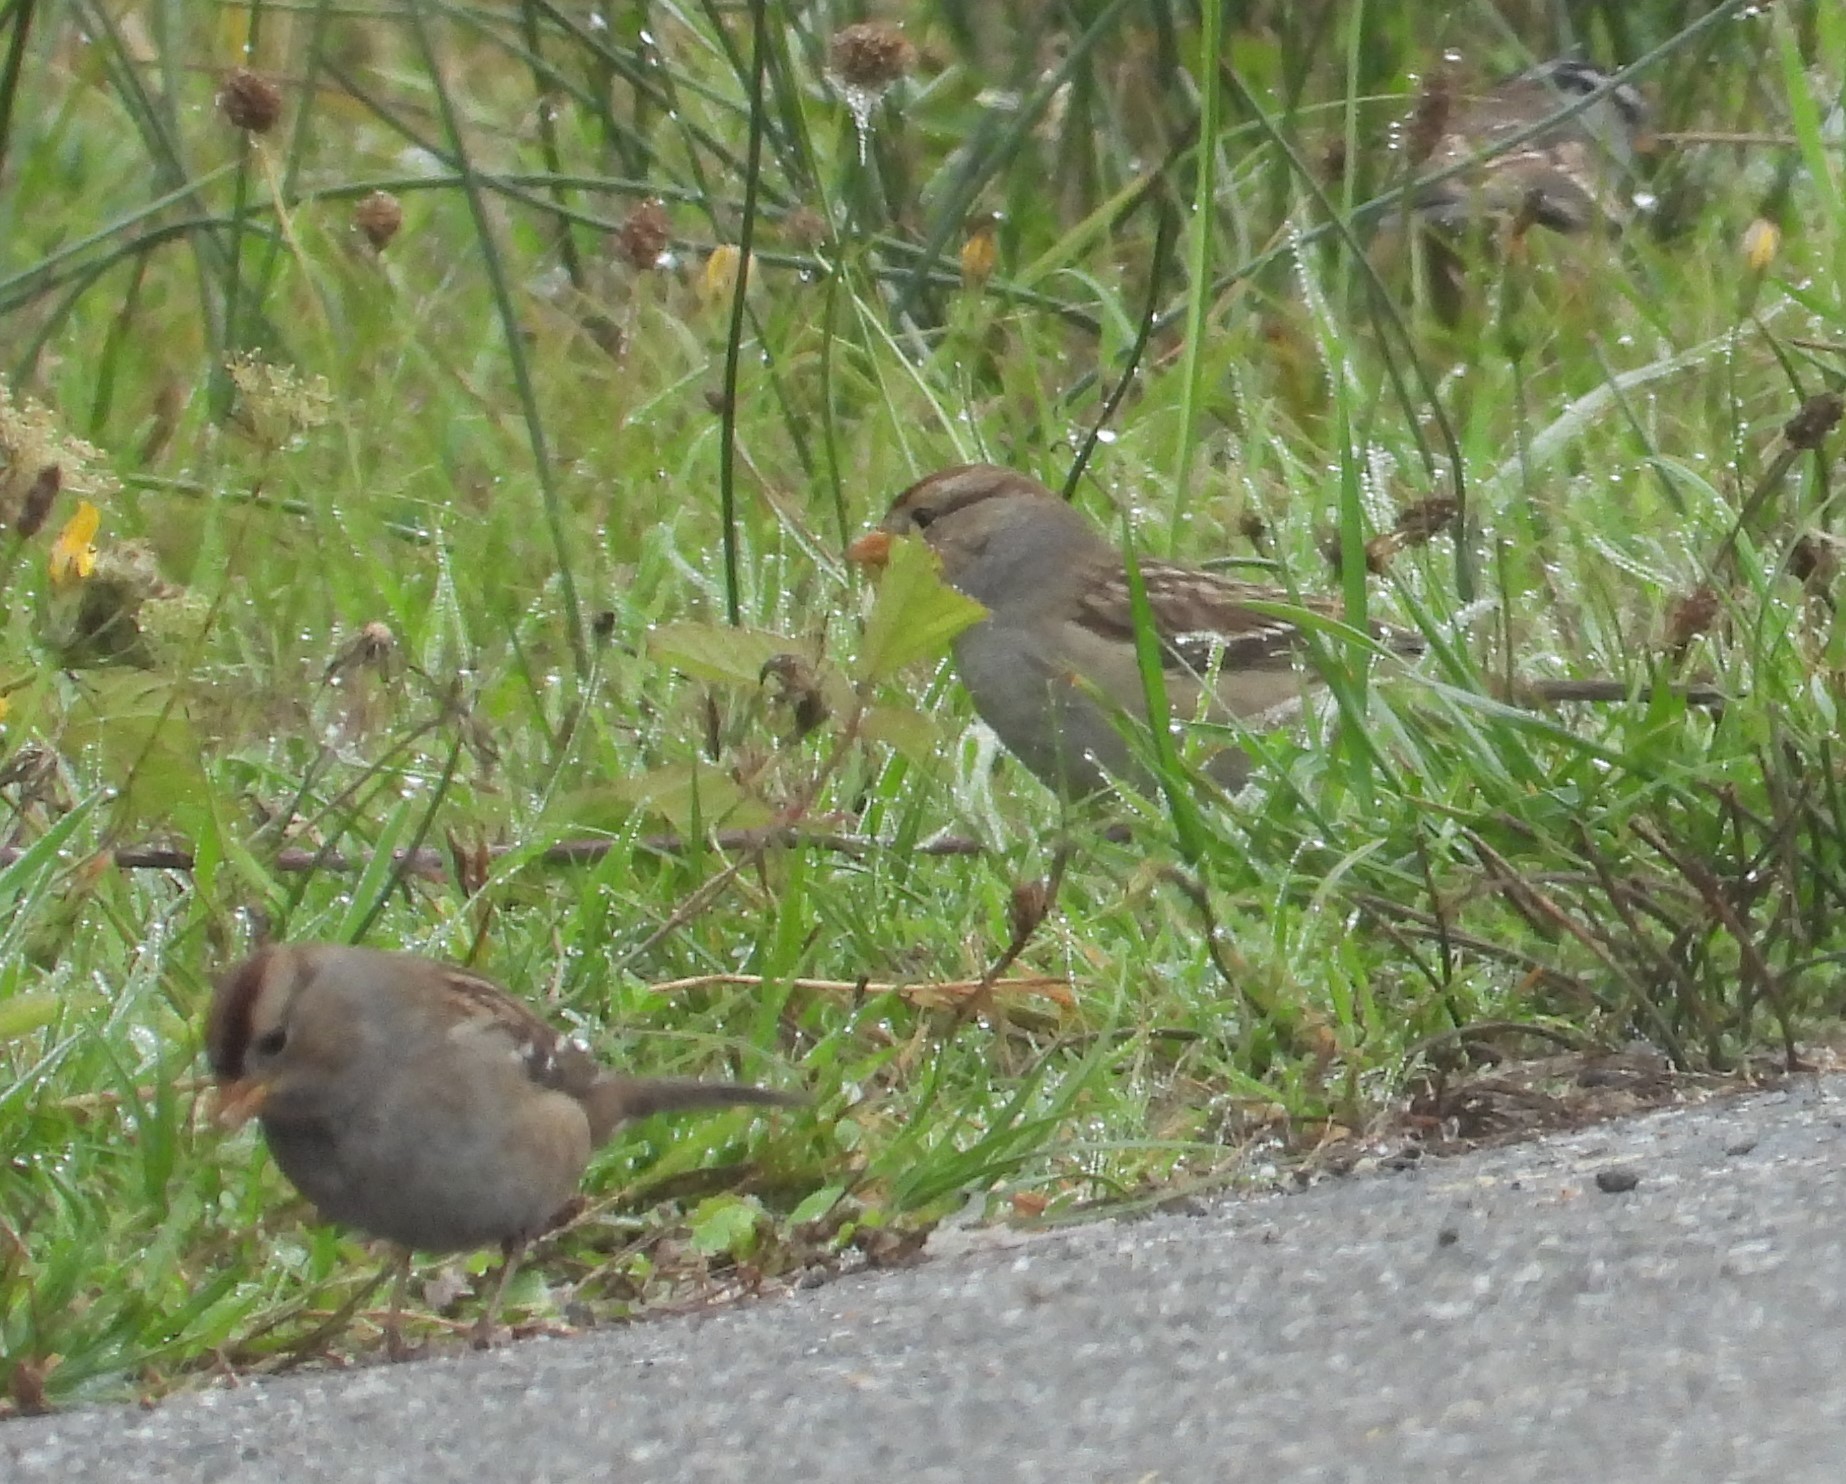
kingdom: Animalia
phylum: Chordata
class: Aves
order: Passeriformes
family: Passerellidae
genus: Zonotrichia
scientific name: Zonotrichia leucophrys
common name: White-crowned sparrow
